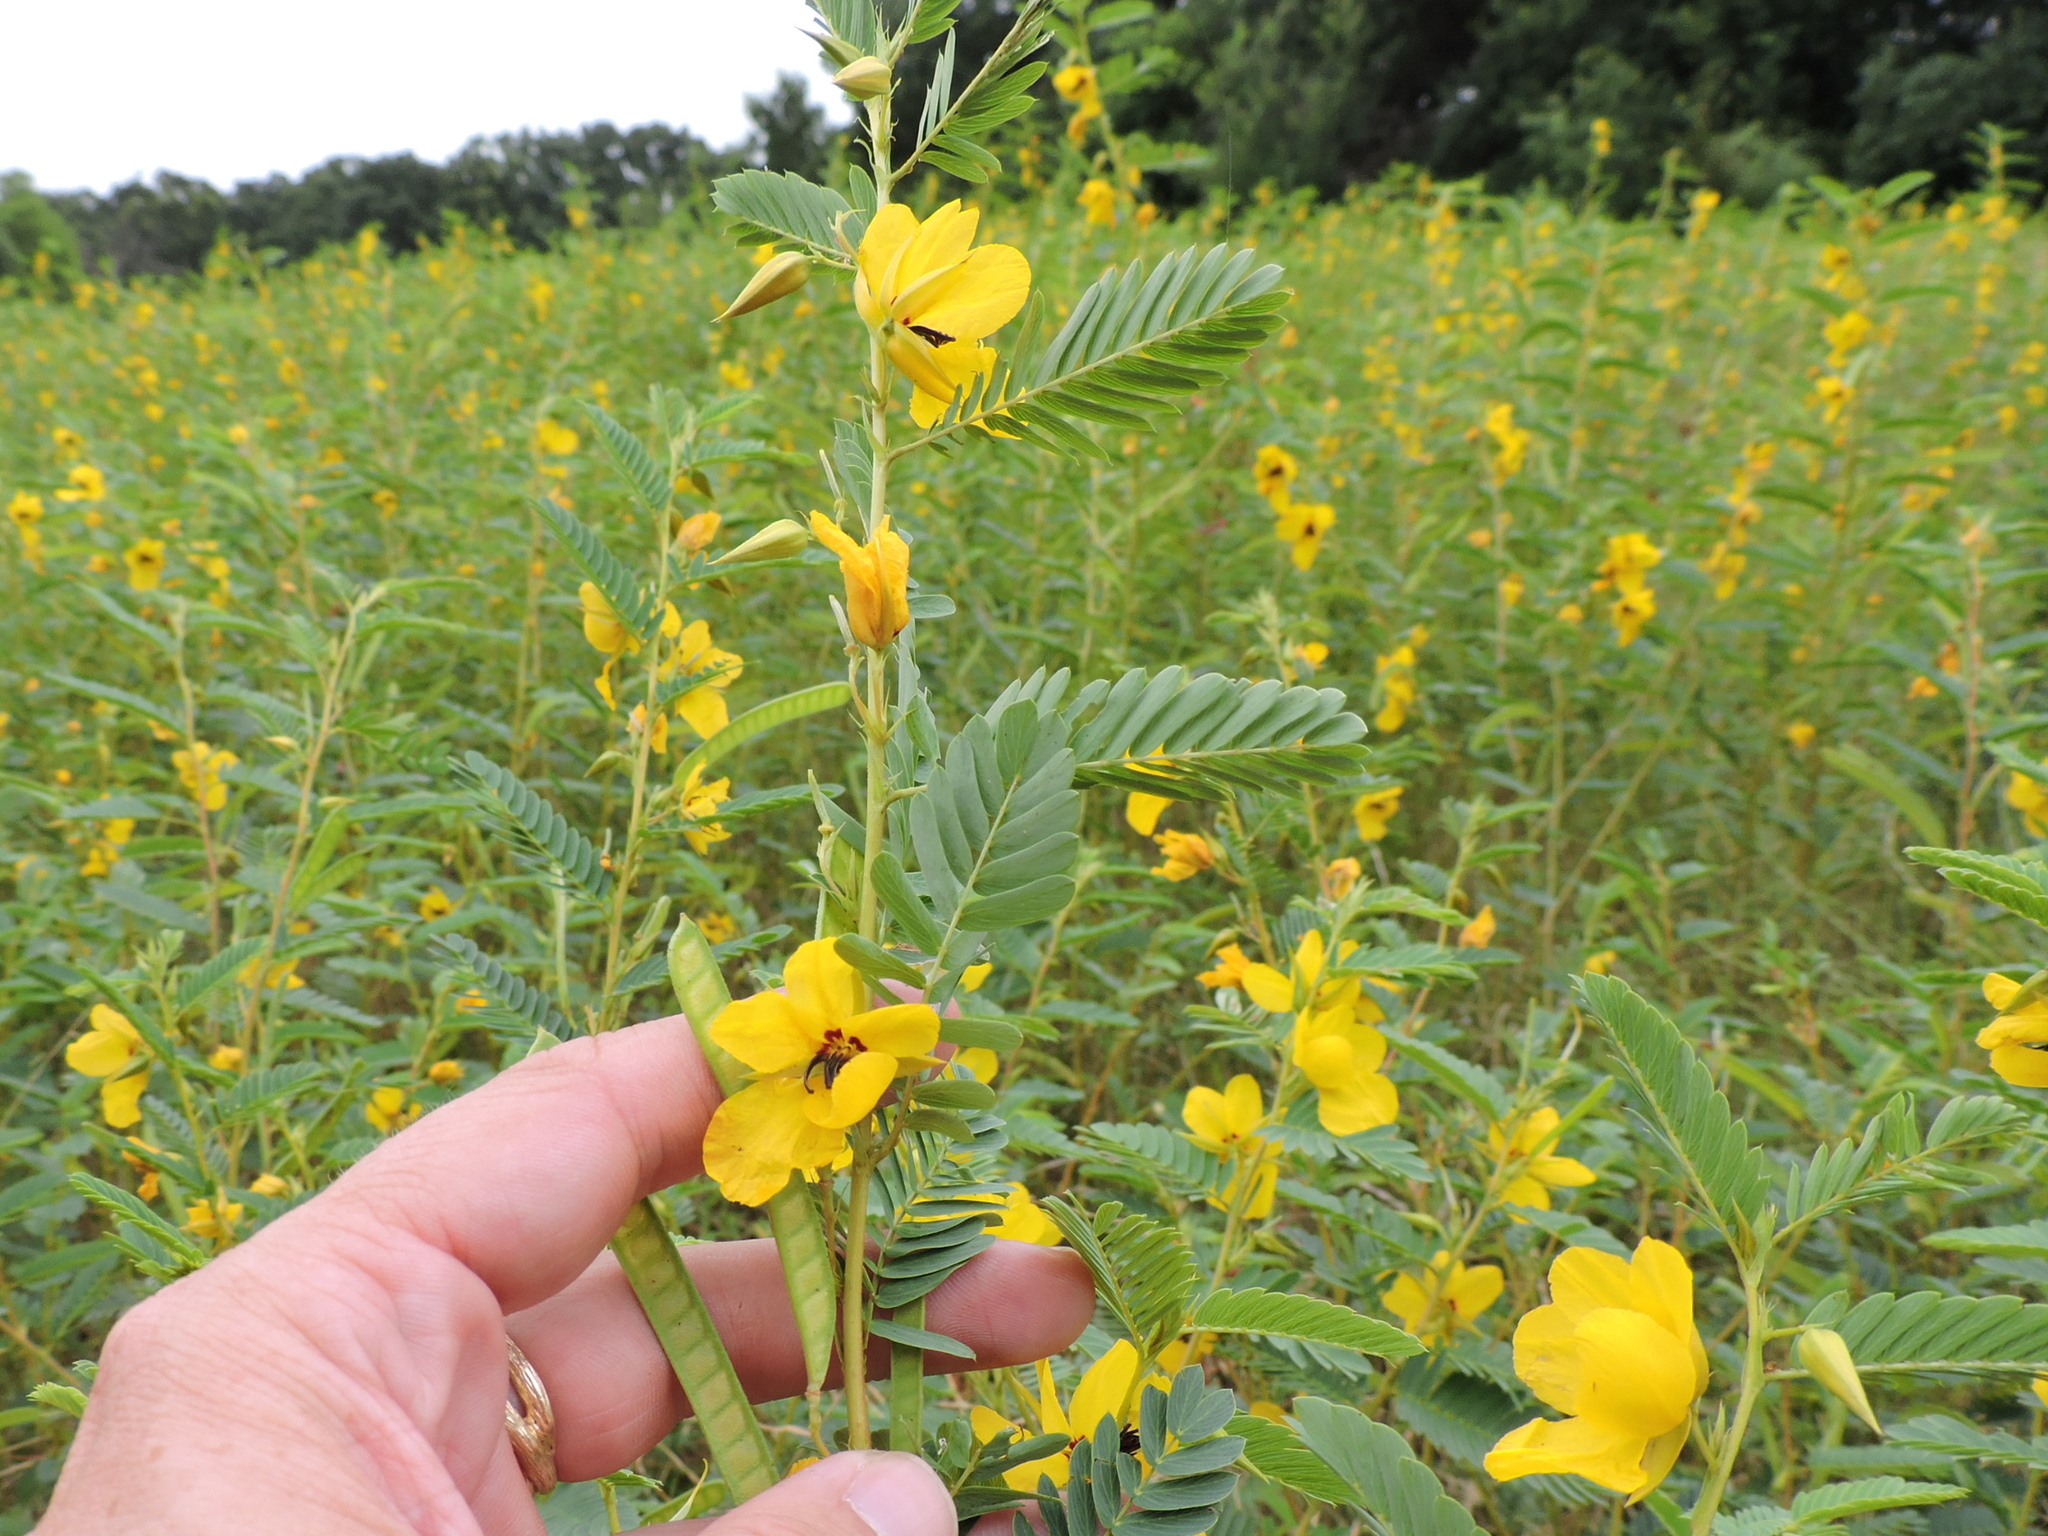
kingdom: Plantae
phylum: Tracheophyta
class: Magnoliopsida
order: Fabales
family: Fabaceae
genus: Chamaecrista
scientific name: Chamaecrista fasciculata
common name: Golden cassia
